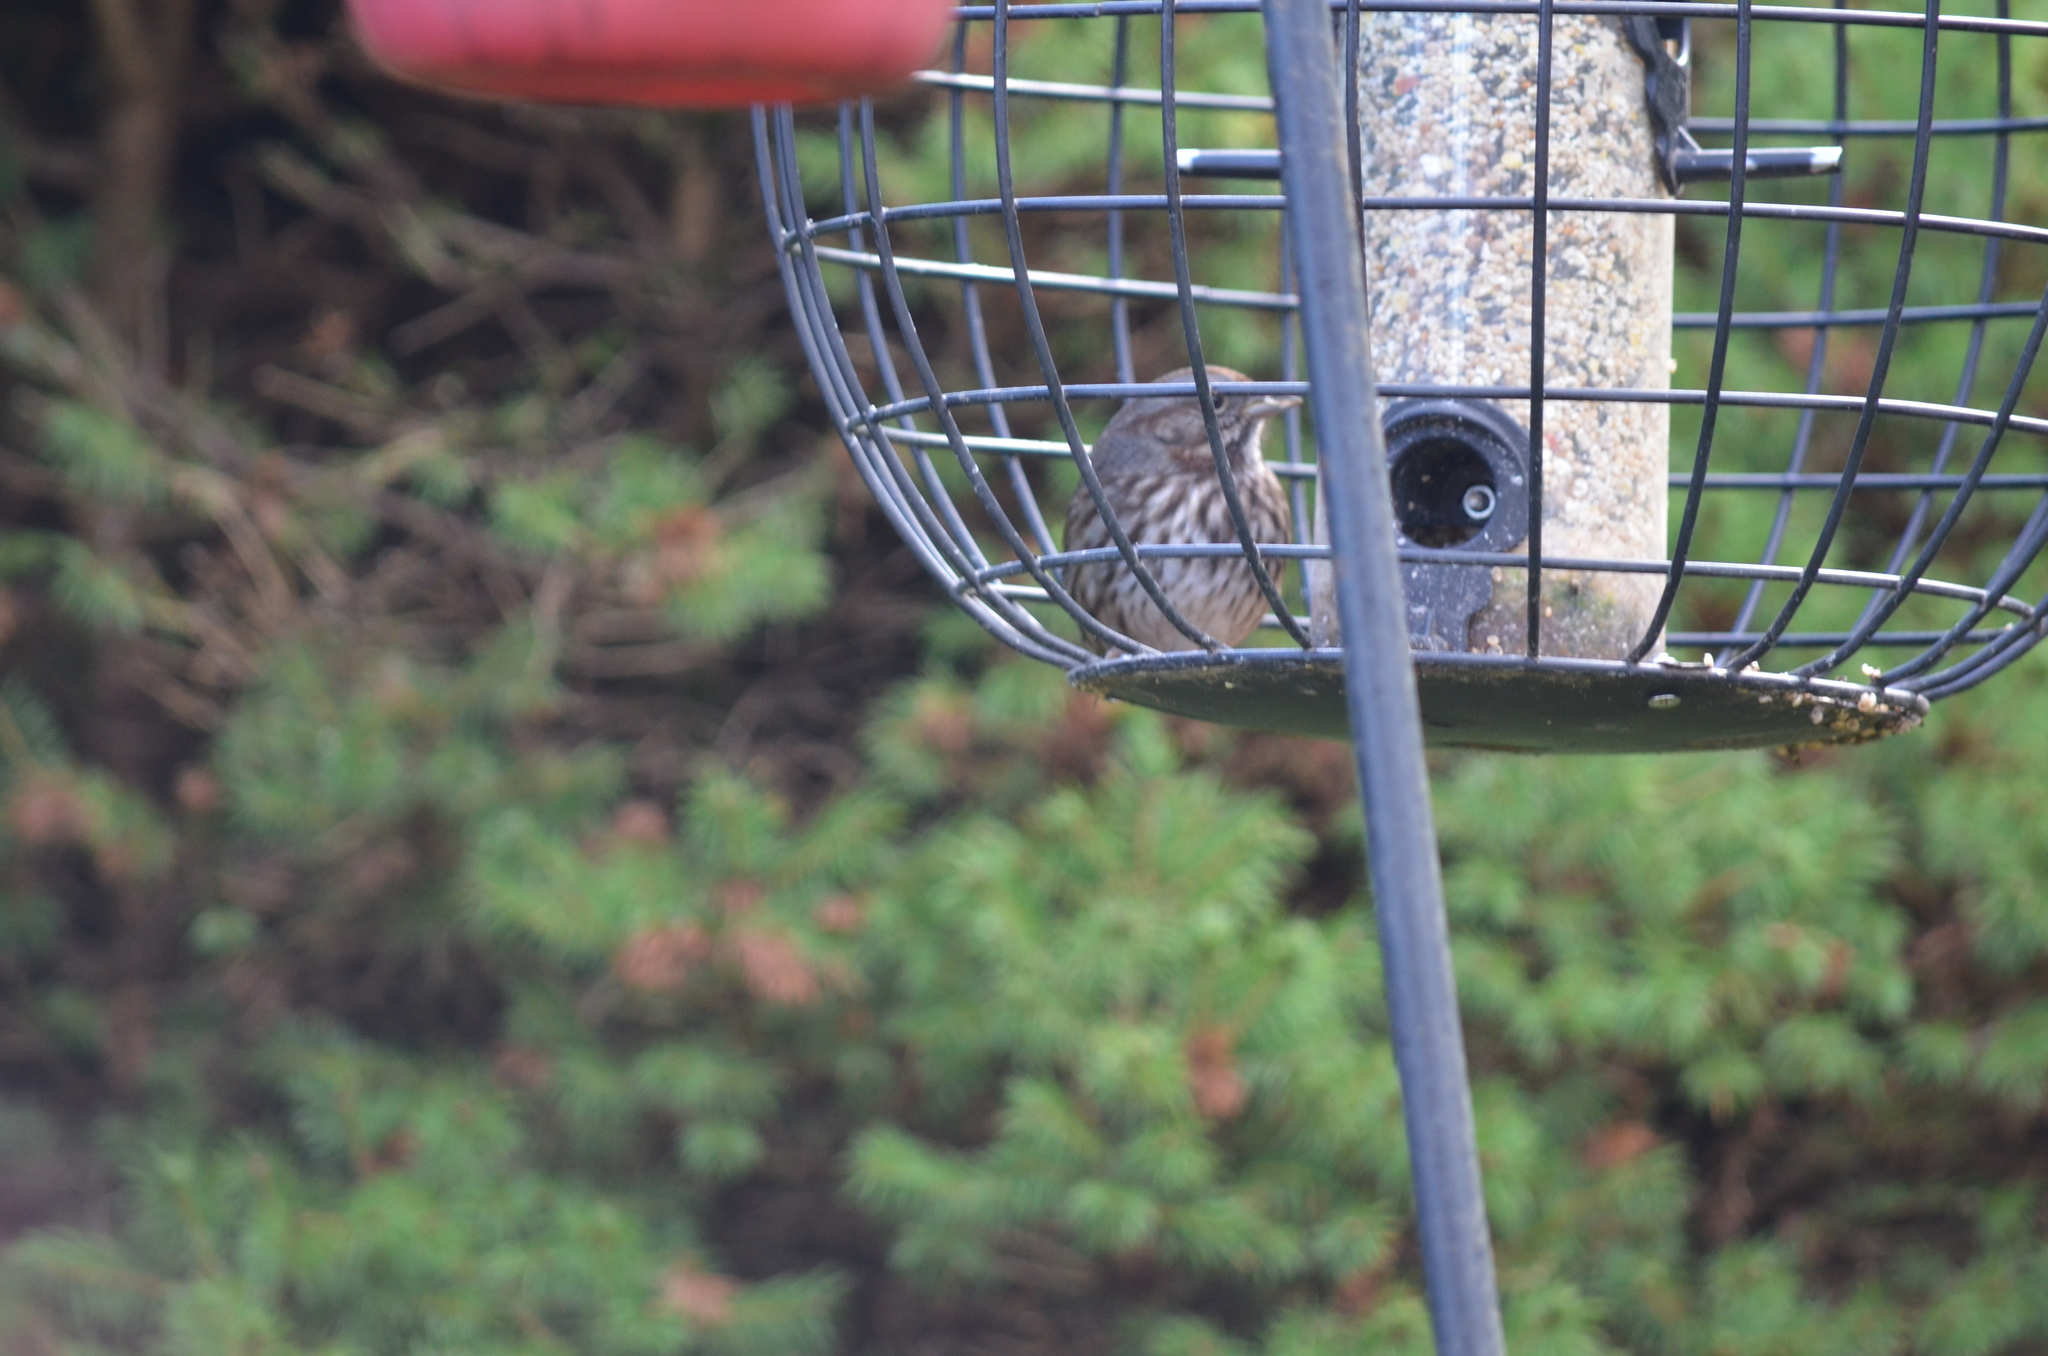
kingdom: Animalia
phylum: Chordata
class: Aves
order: Passeriformes
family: Passerellidae
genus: Melospiza
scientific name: Melospiza melodia
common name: Song sparrow
